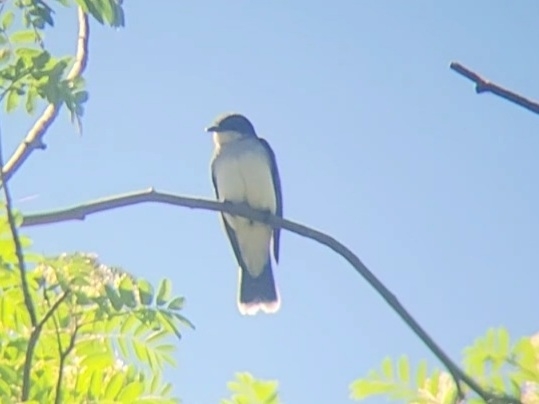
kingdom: Animalia
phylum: Chordata
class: Aves
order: Passeriformes
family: Tyrannidae
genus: Tyrannus
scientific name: Tyrannus tyrannus
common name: Eastern kingbird
